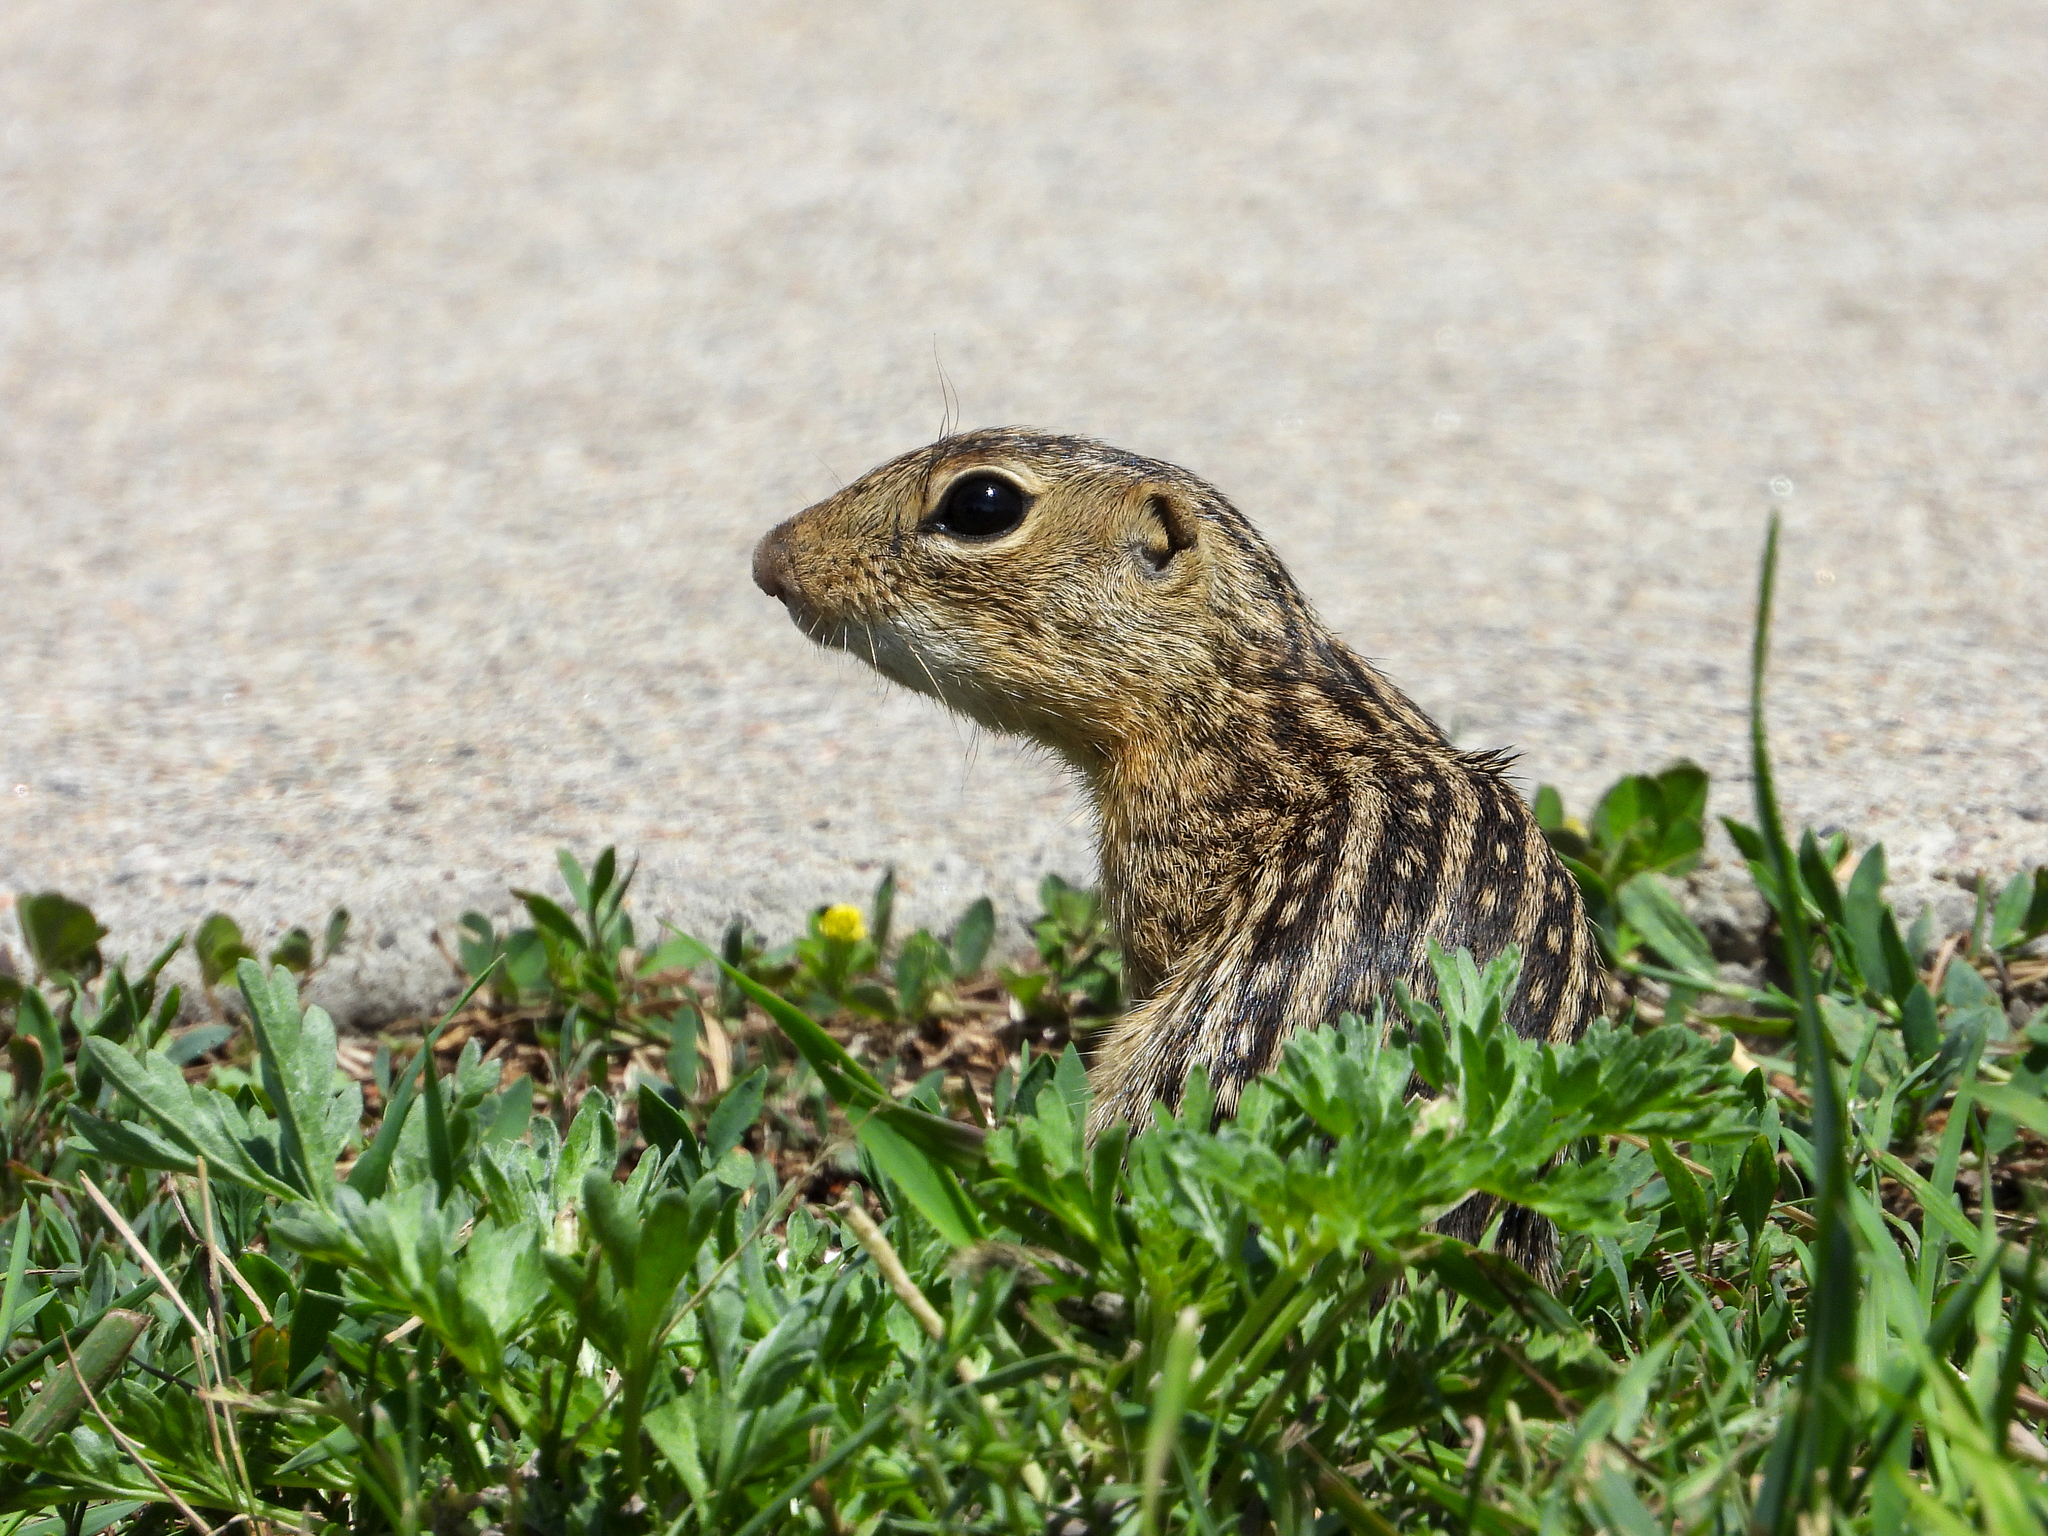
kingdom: Animalia
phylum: Chordata
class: Mammalia
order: Rodentia
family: Sciuridae
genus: Ictidomys
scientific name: Ictidomys tridecemlineatus
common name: Thirteen-lined ground squirrel
